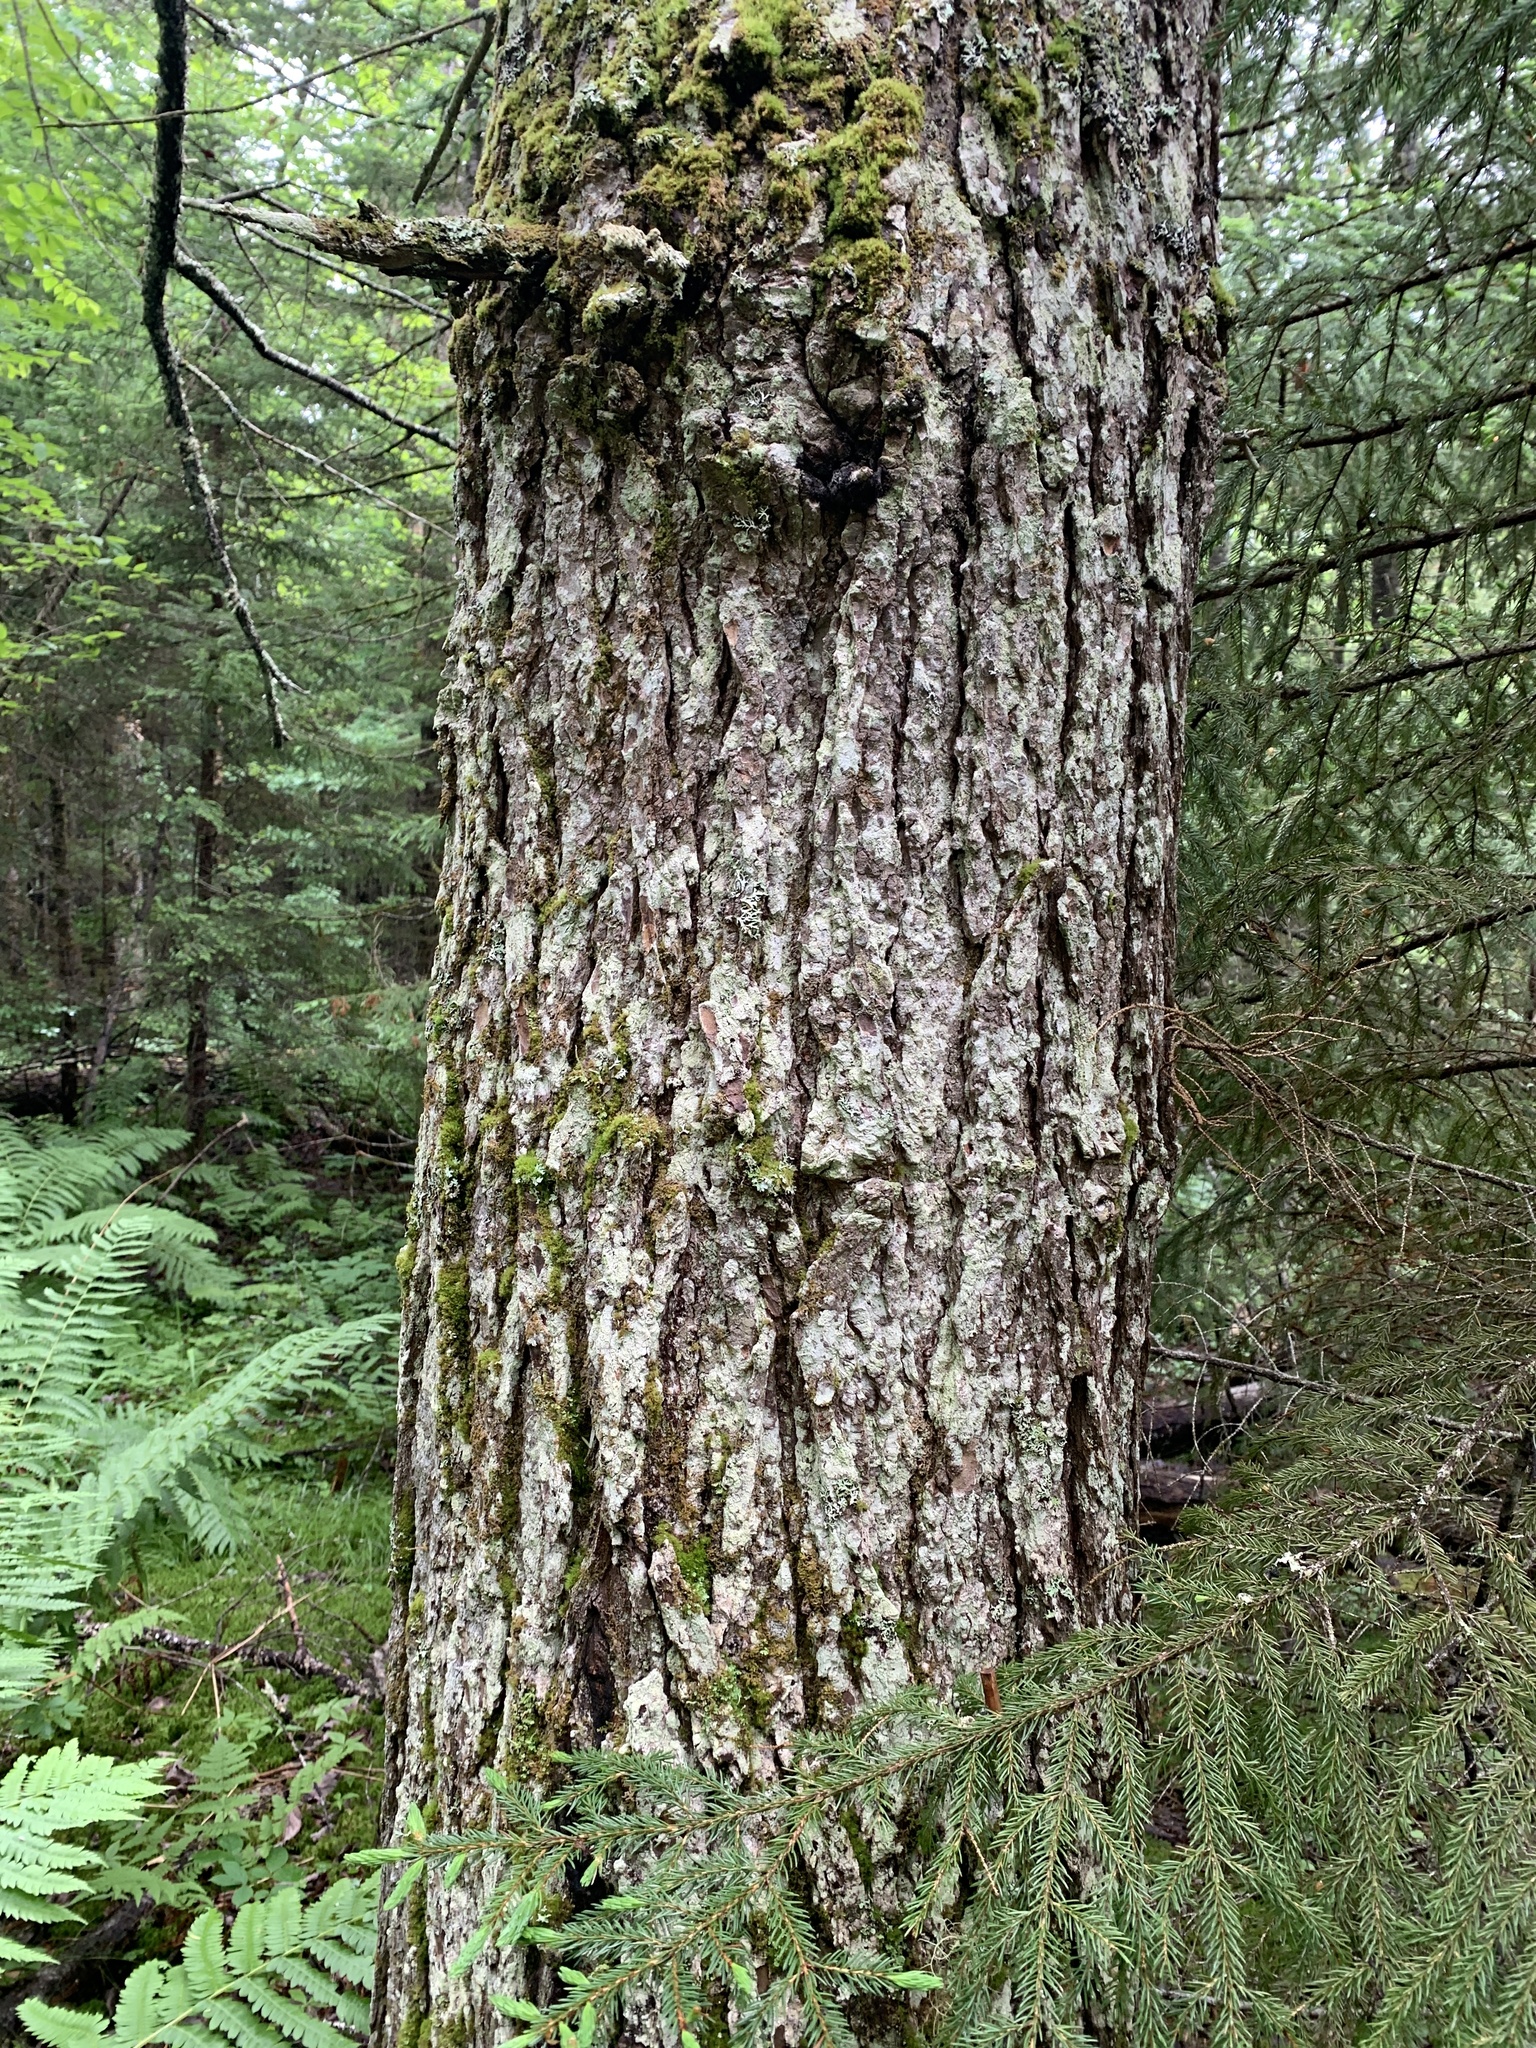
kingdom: Plantae
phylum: Tracheophyta
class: Pinopsida
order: Pinales
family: Pinaceae
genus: Tsuga
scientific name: Tsuga canadensis
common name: Eastern hemlock
